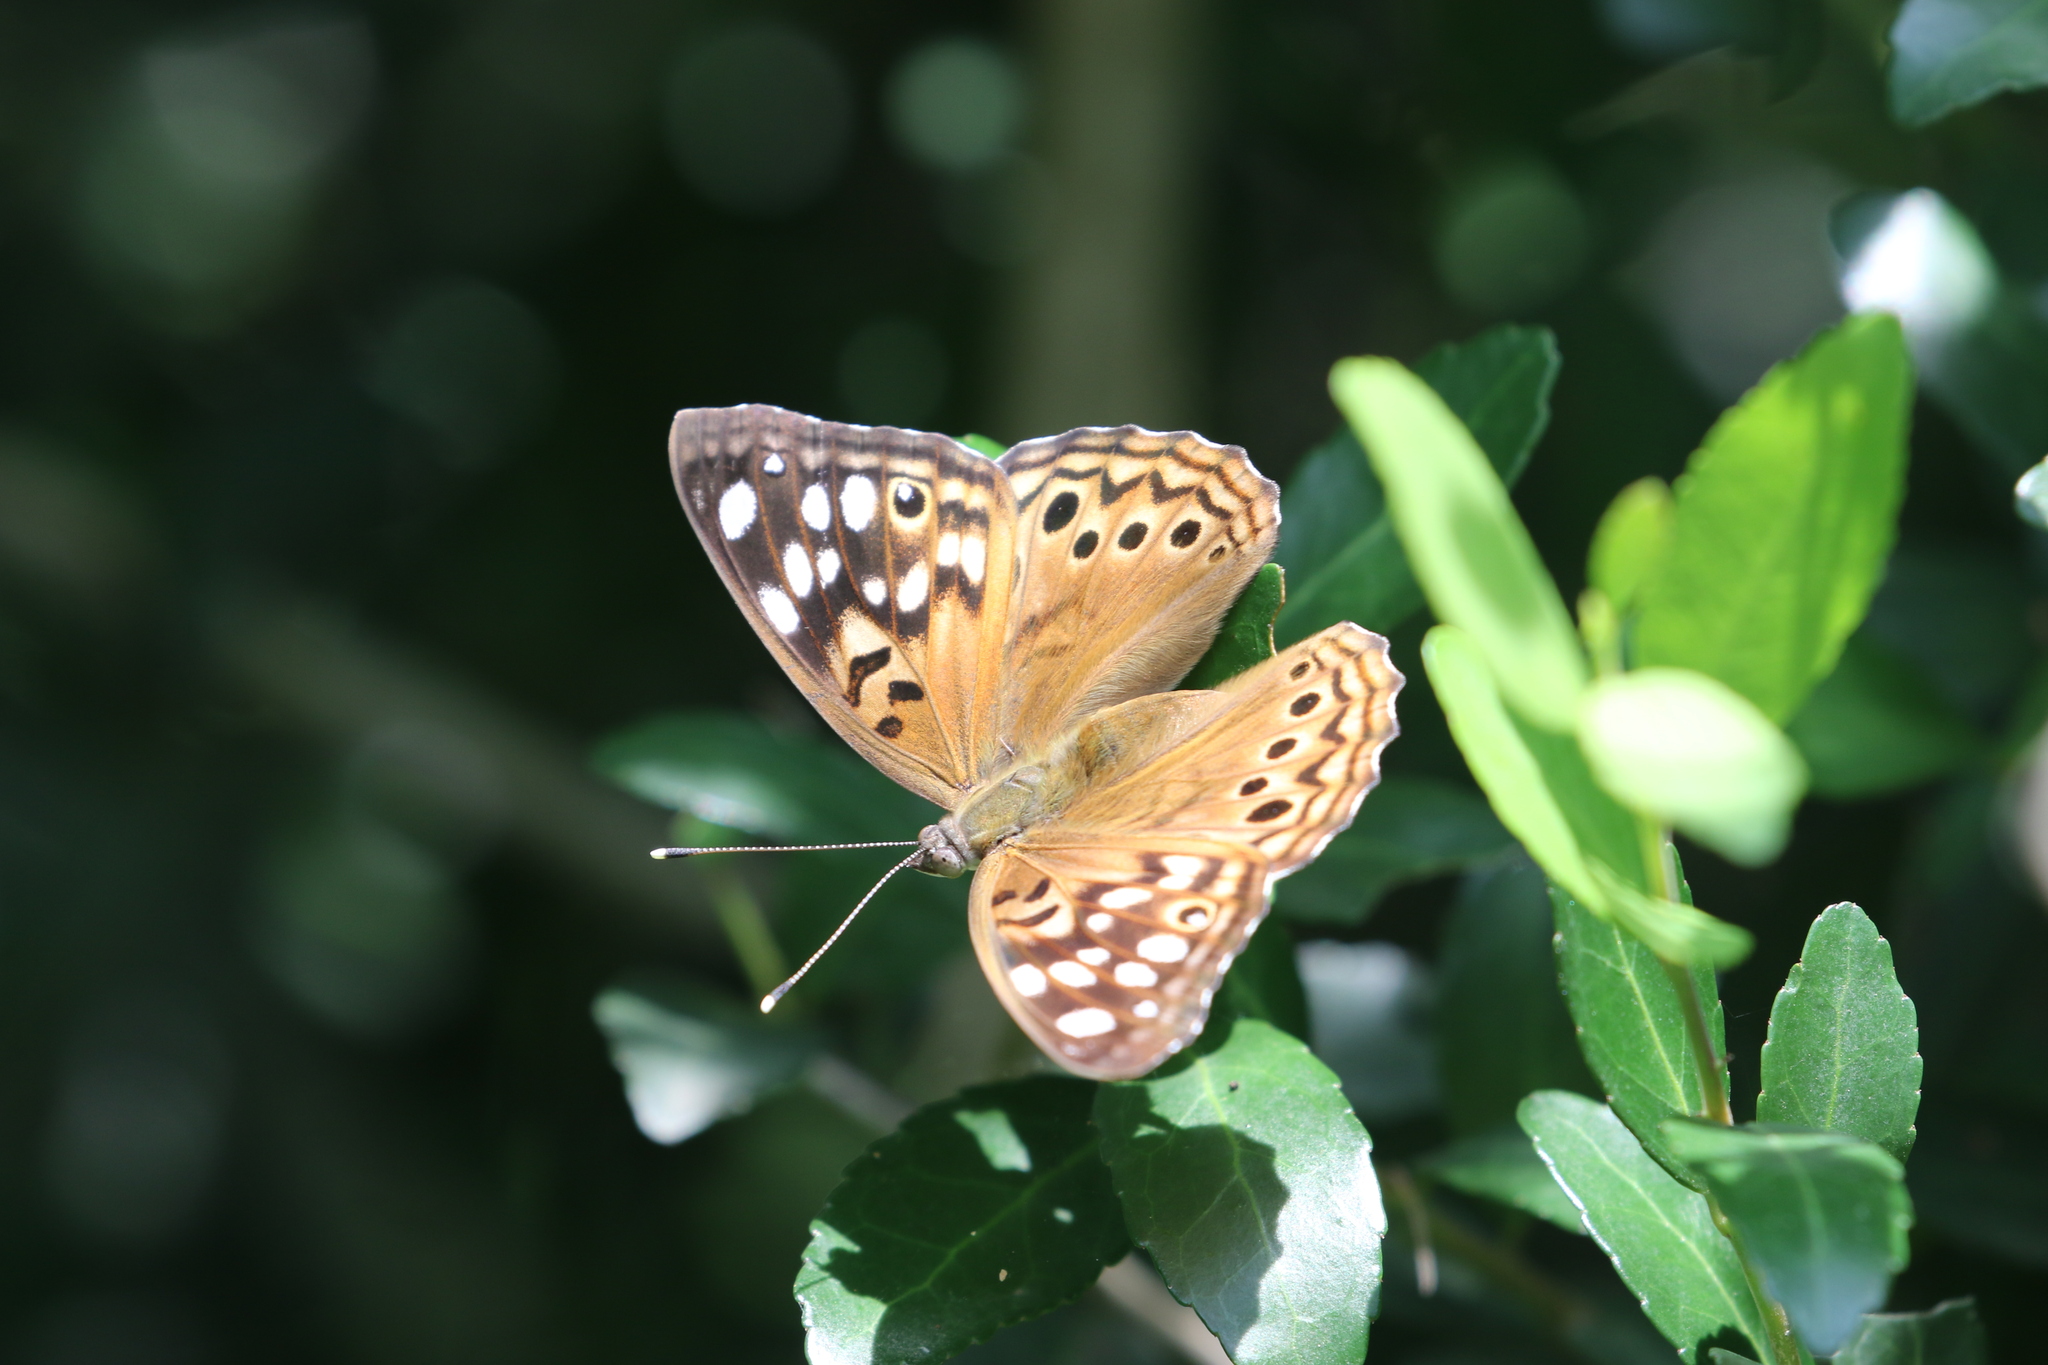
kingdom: Animalia
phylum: Arthropoda
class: Insecta
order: Lepidoptera
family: Nymphalidae
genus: Asterocampa
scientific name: Asterocampa celtis
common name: Hackberry emperor
